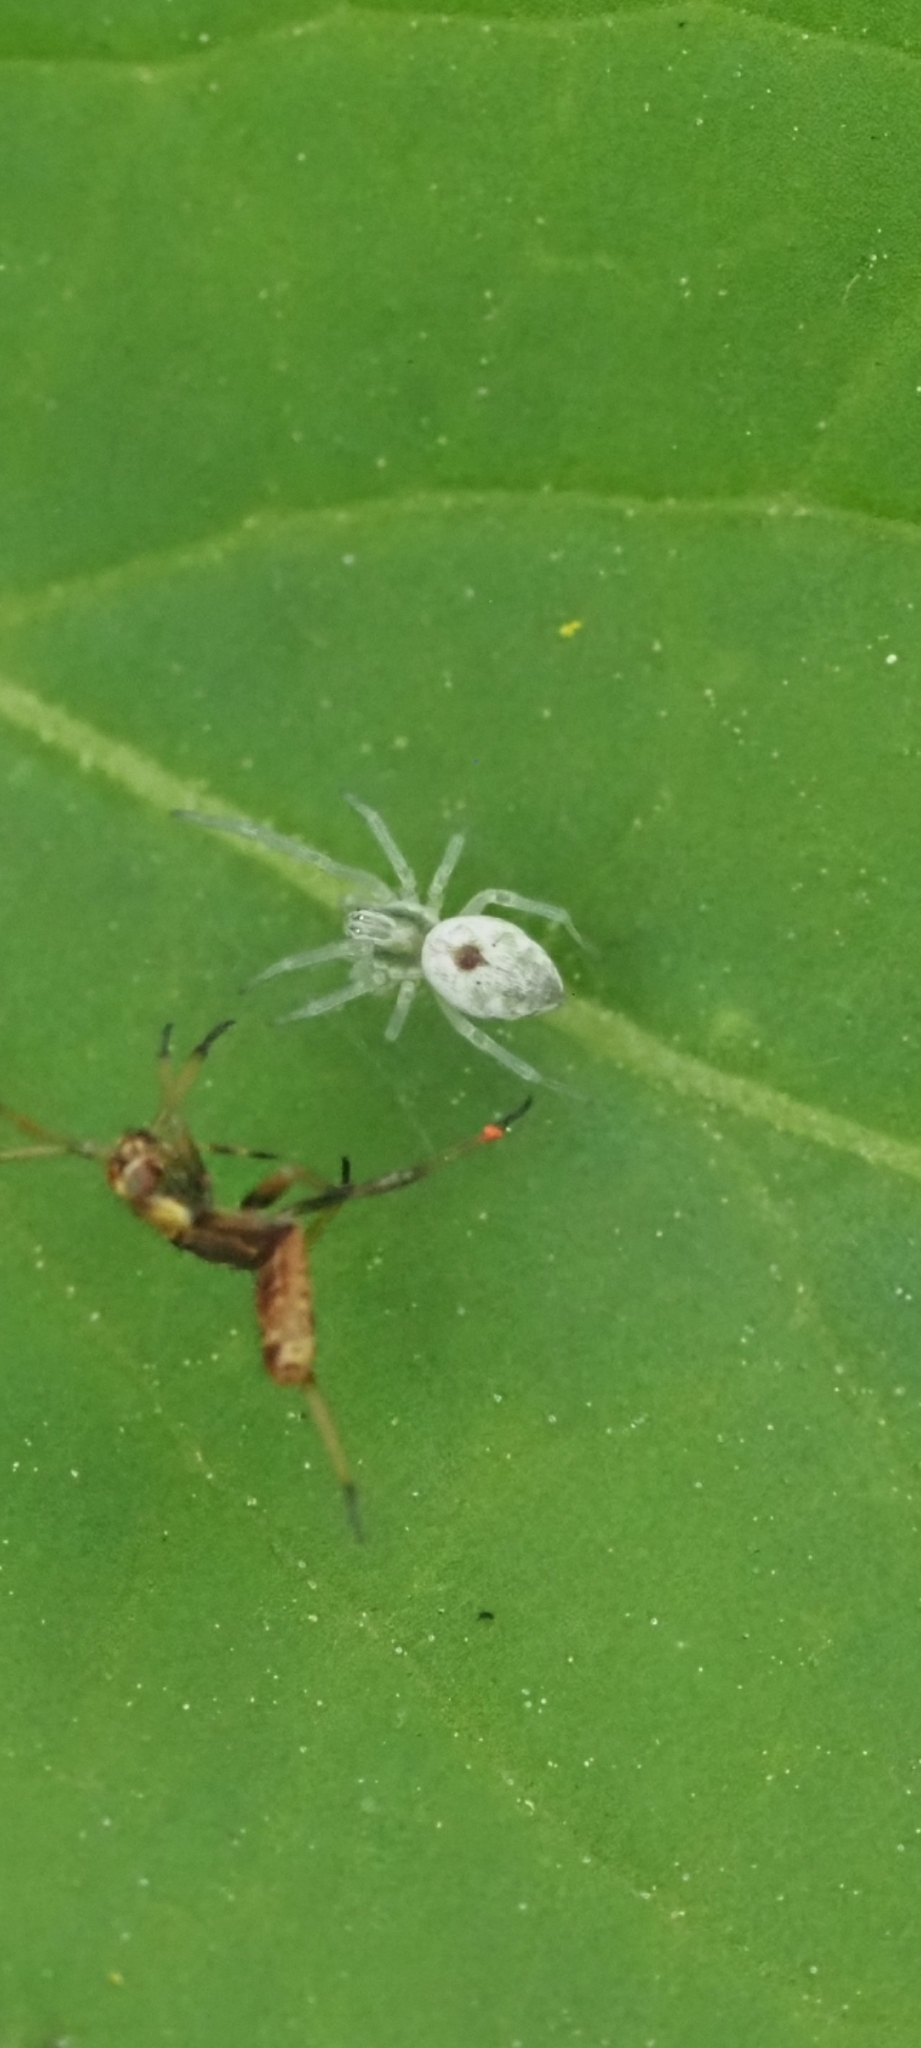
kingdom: Animalia
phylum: Arthropoda
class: Arachnida
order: Araneae
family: Dictynidae
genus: Nigma
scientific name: Nigma puella
